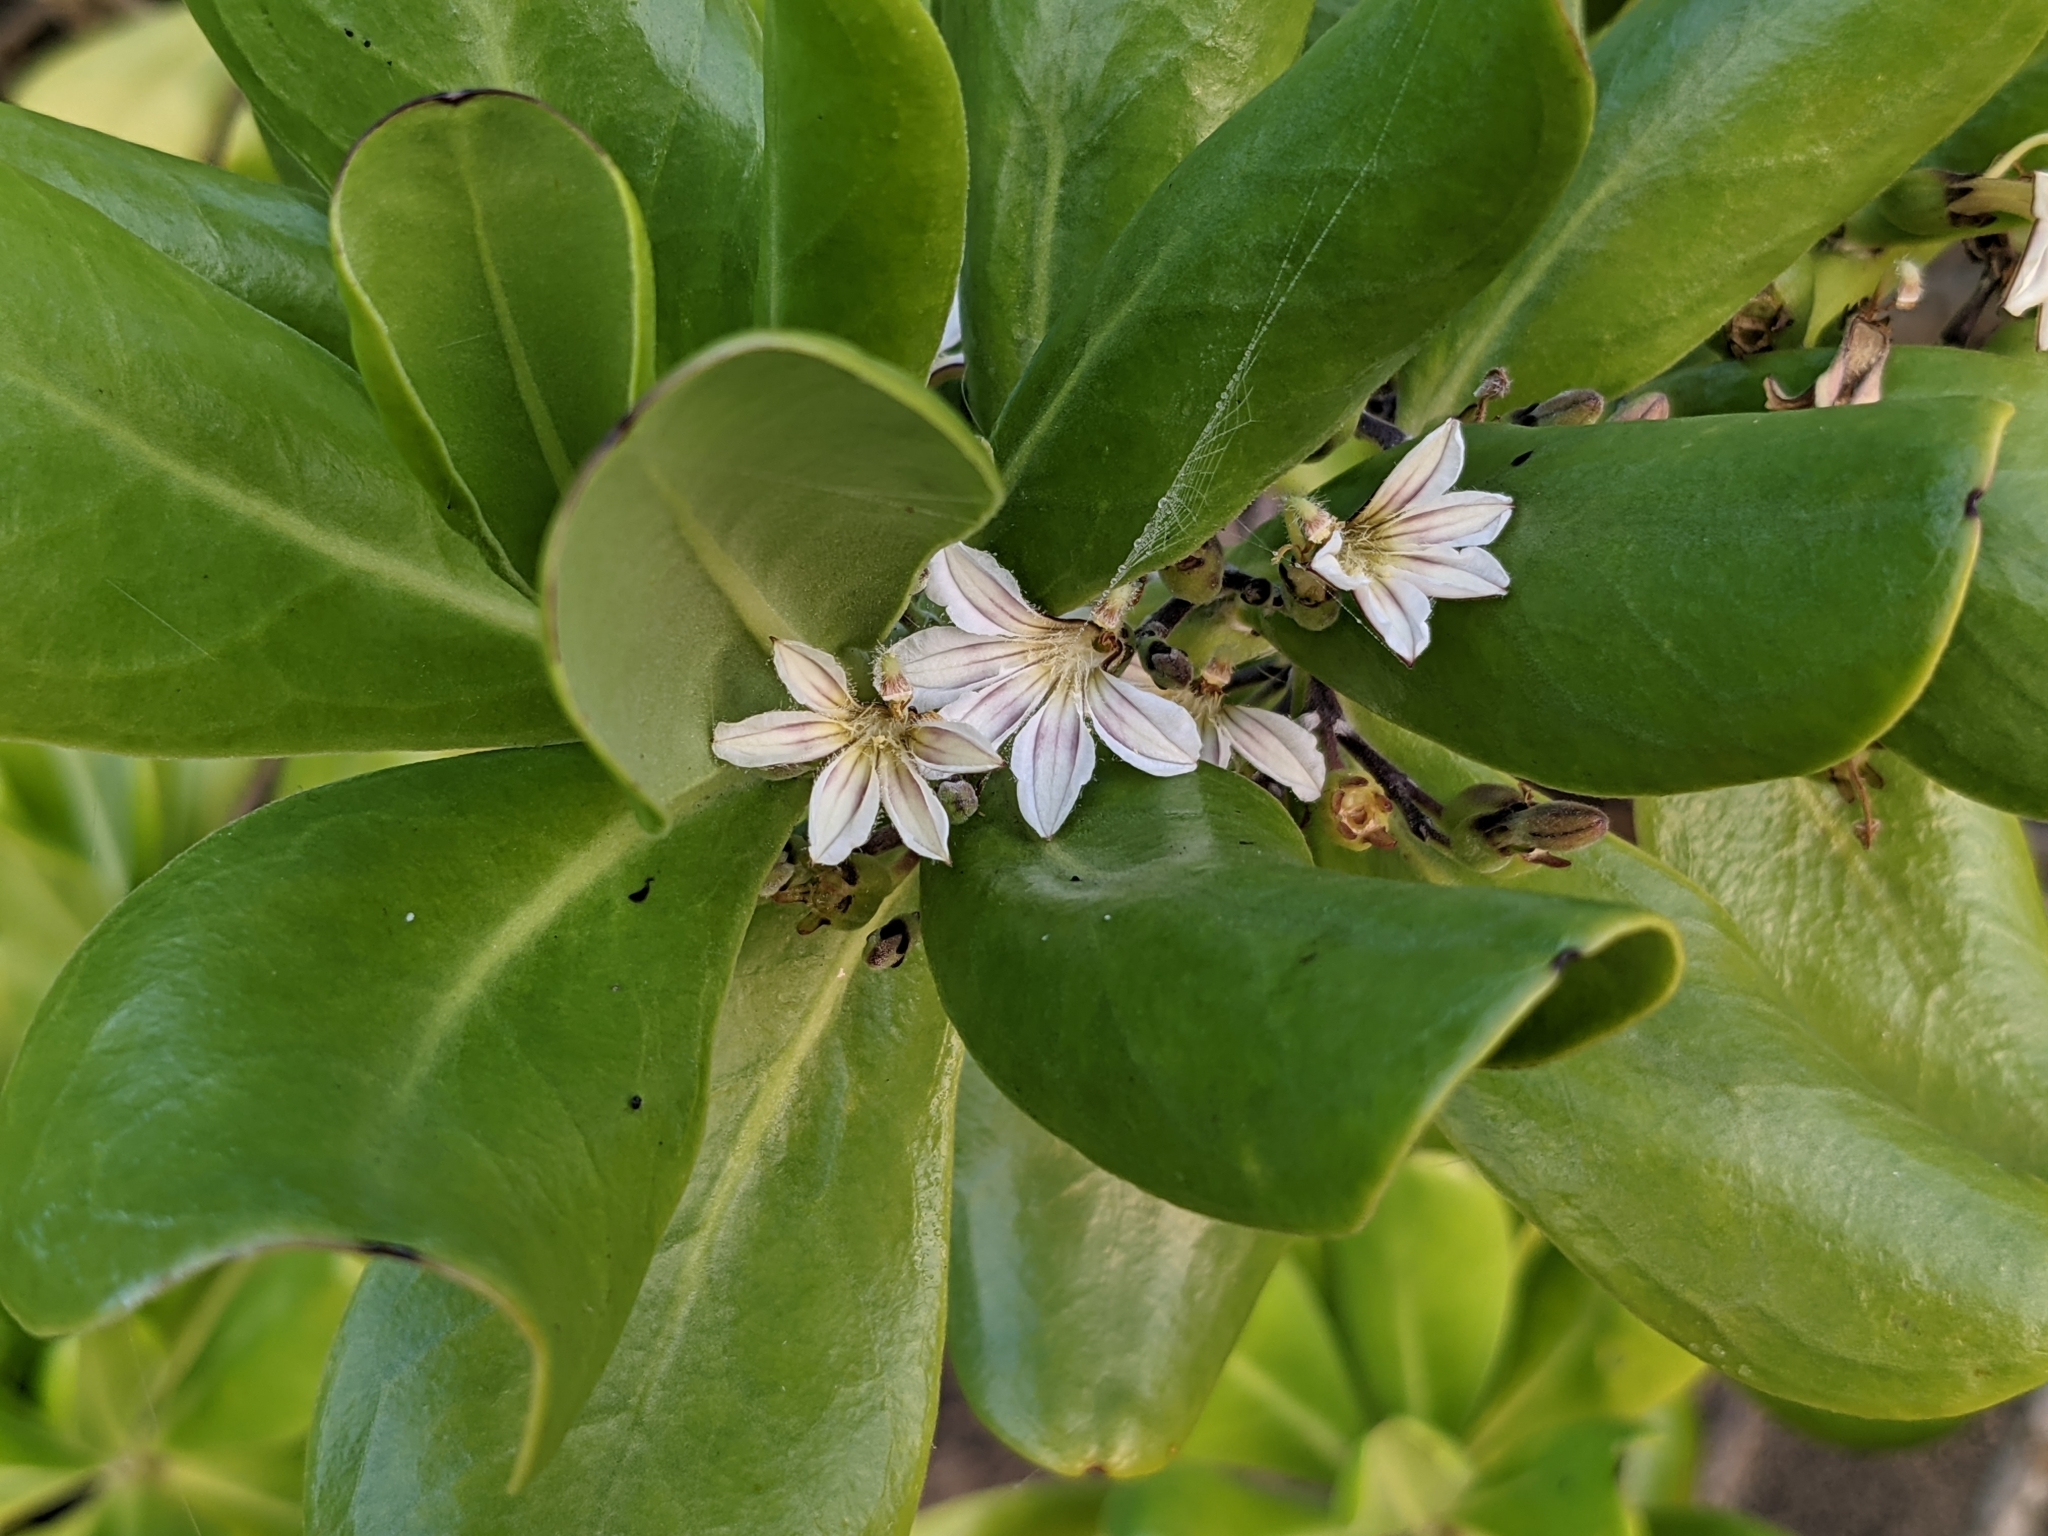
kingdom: Plantae
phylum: Tracheophyta
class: Magnoliopsida
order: Asterales
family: Goodeniaceae
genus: Scaevola
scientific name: Scaevola taccada
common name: Sea lettucetree
